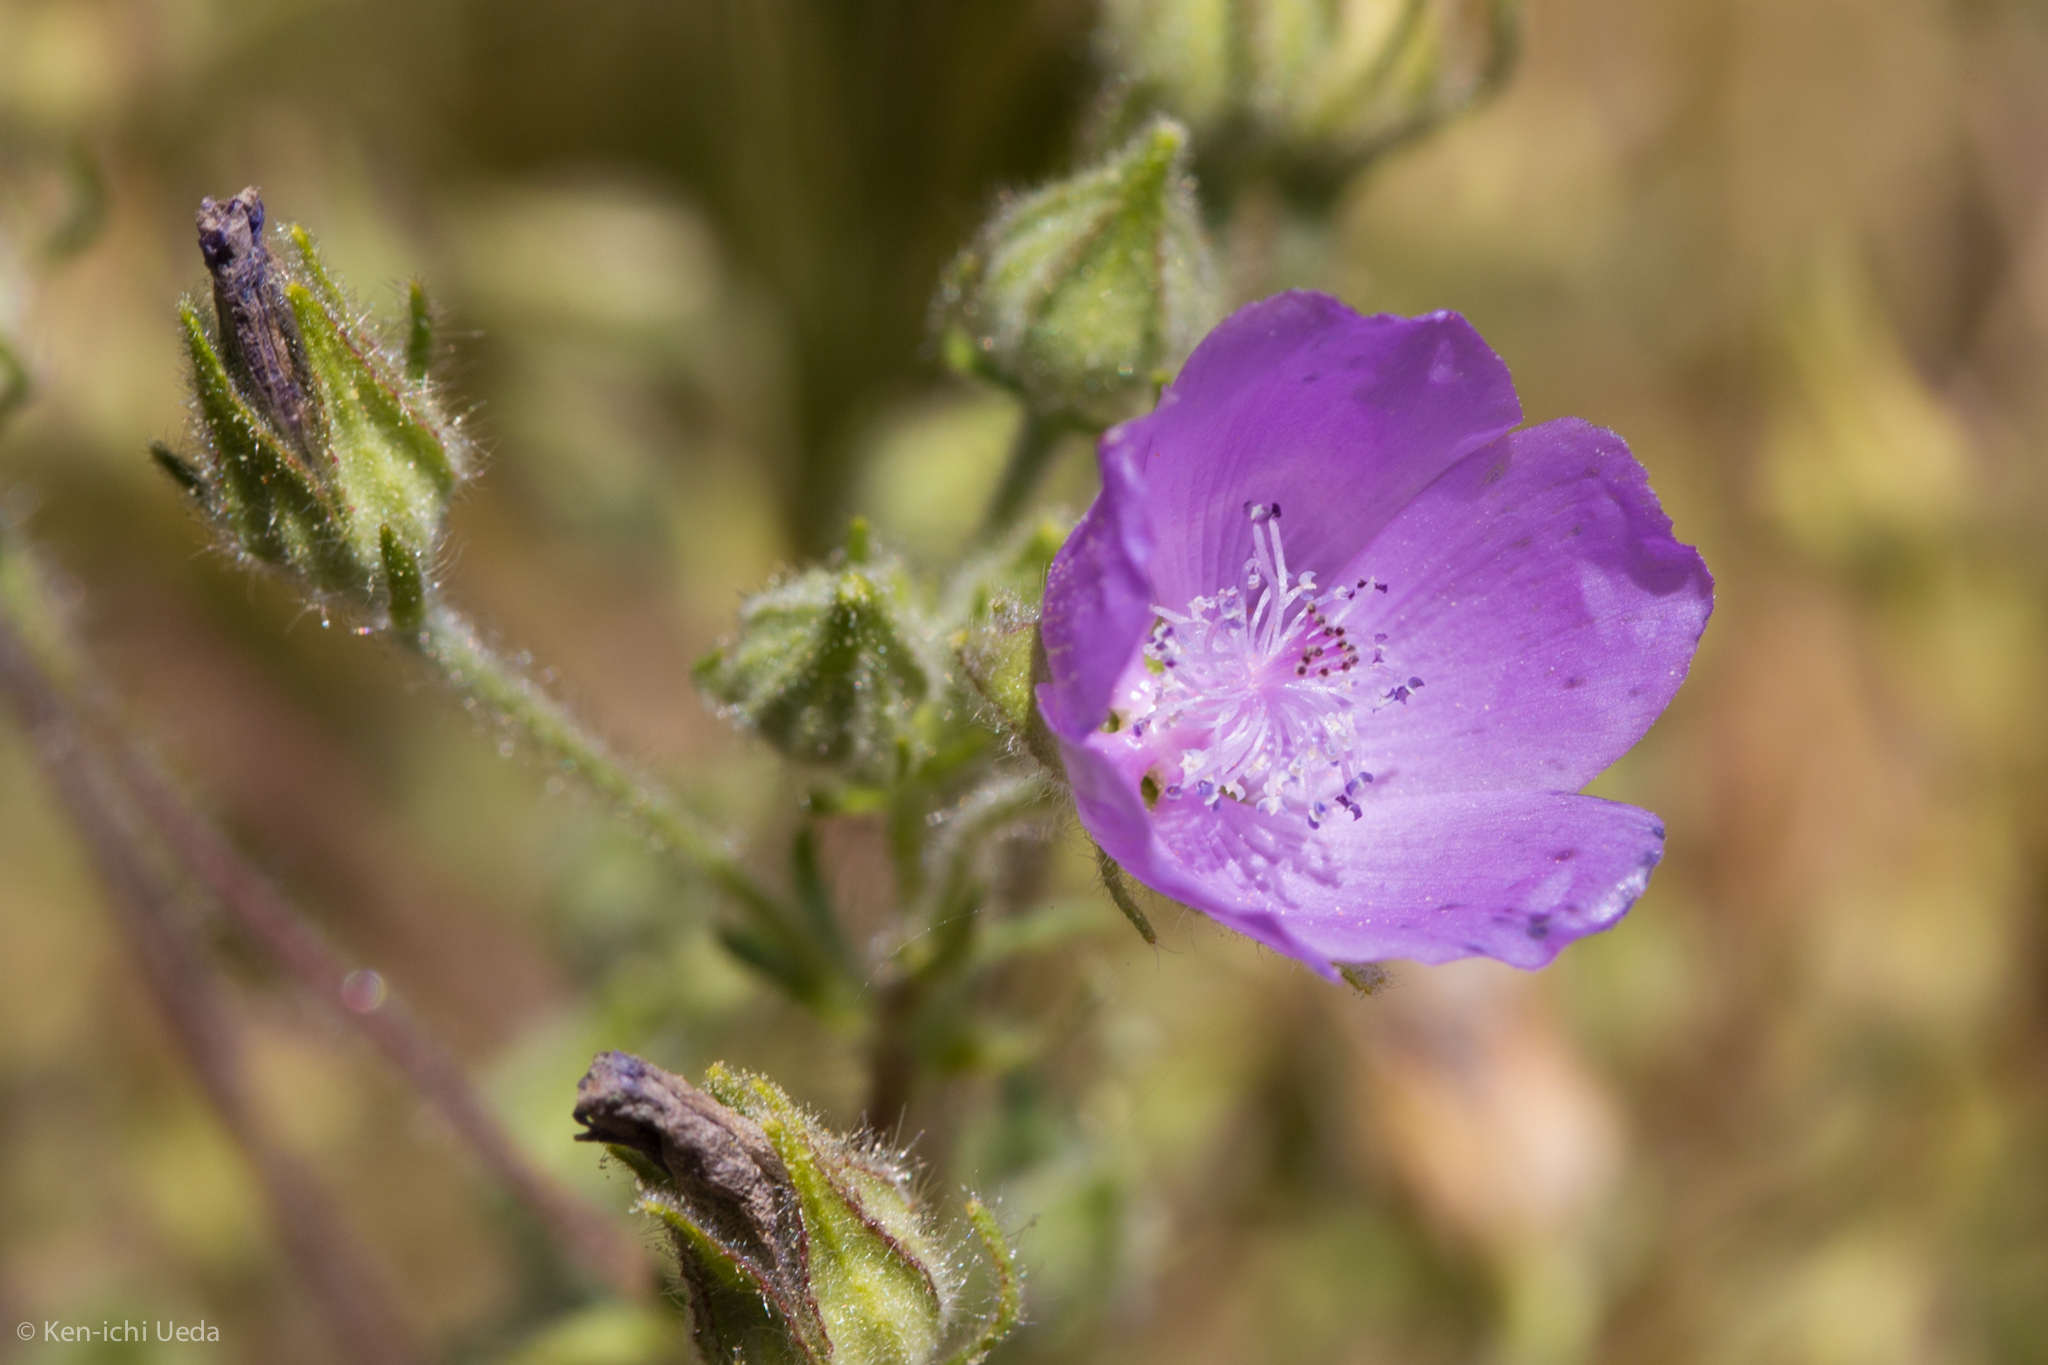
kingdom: Plantae
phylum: Tracheophyta
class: Magnoliopsida
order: Malvales
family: Malvaceae
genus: Eremalche
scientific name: Eremalche parryi
